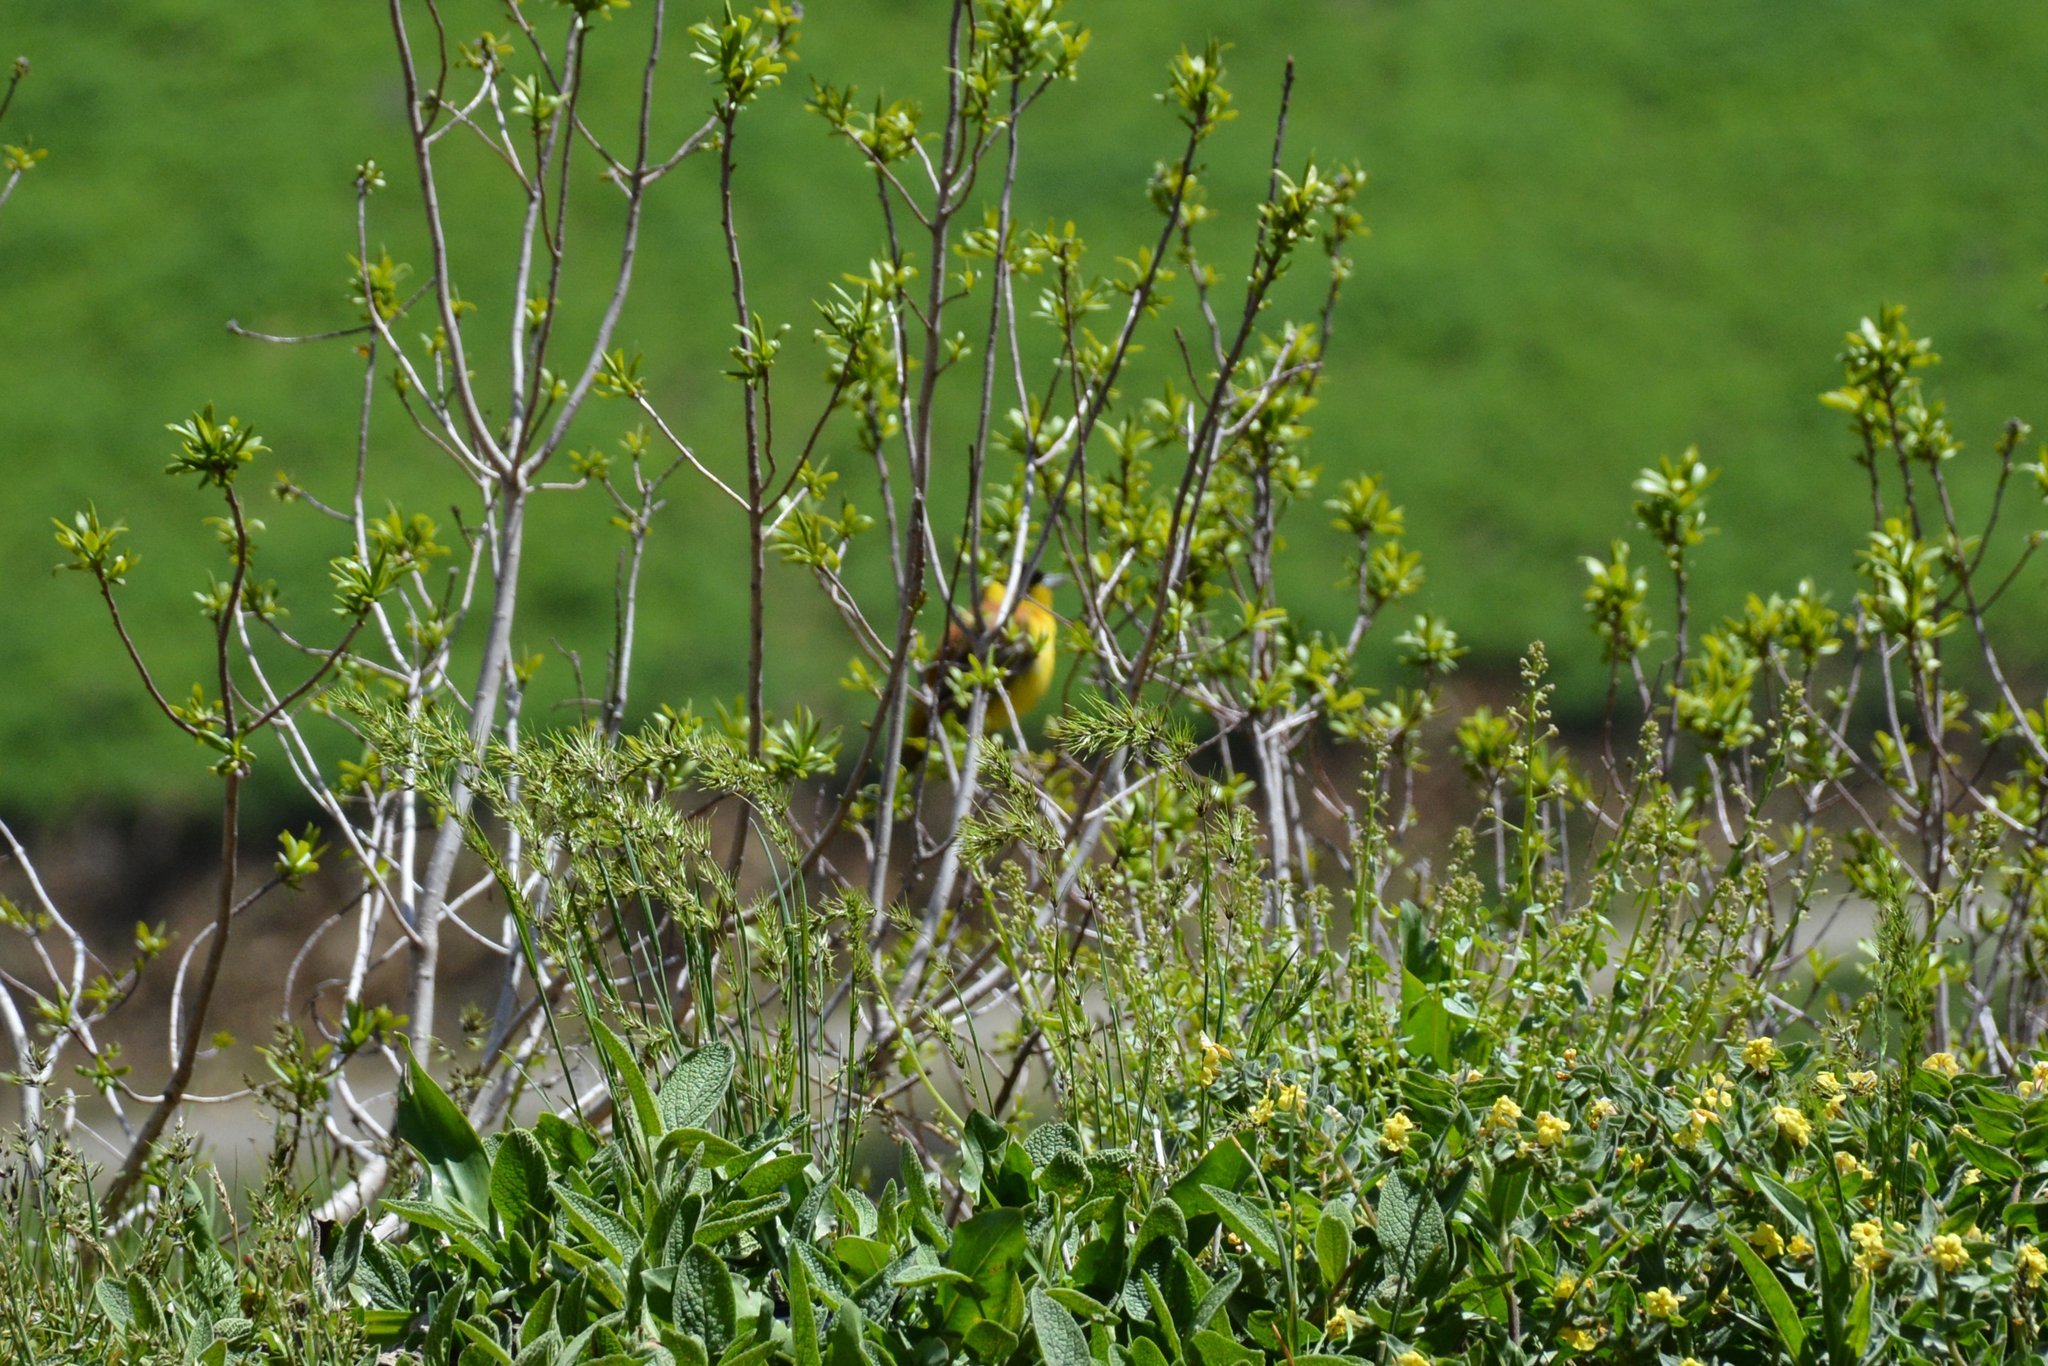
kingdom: Animalia
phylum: Chordata
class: Aves
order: Passeriformes
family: Emberizidae
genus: Emberiza
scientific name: Emberiza melanocephala
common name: Black-headed bunting
